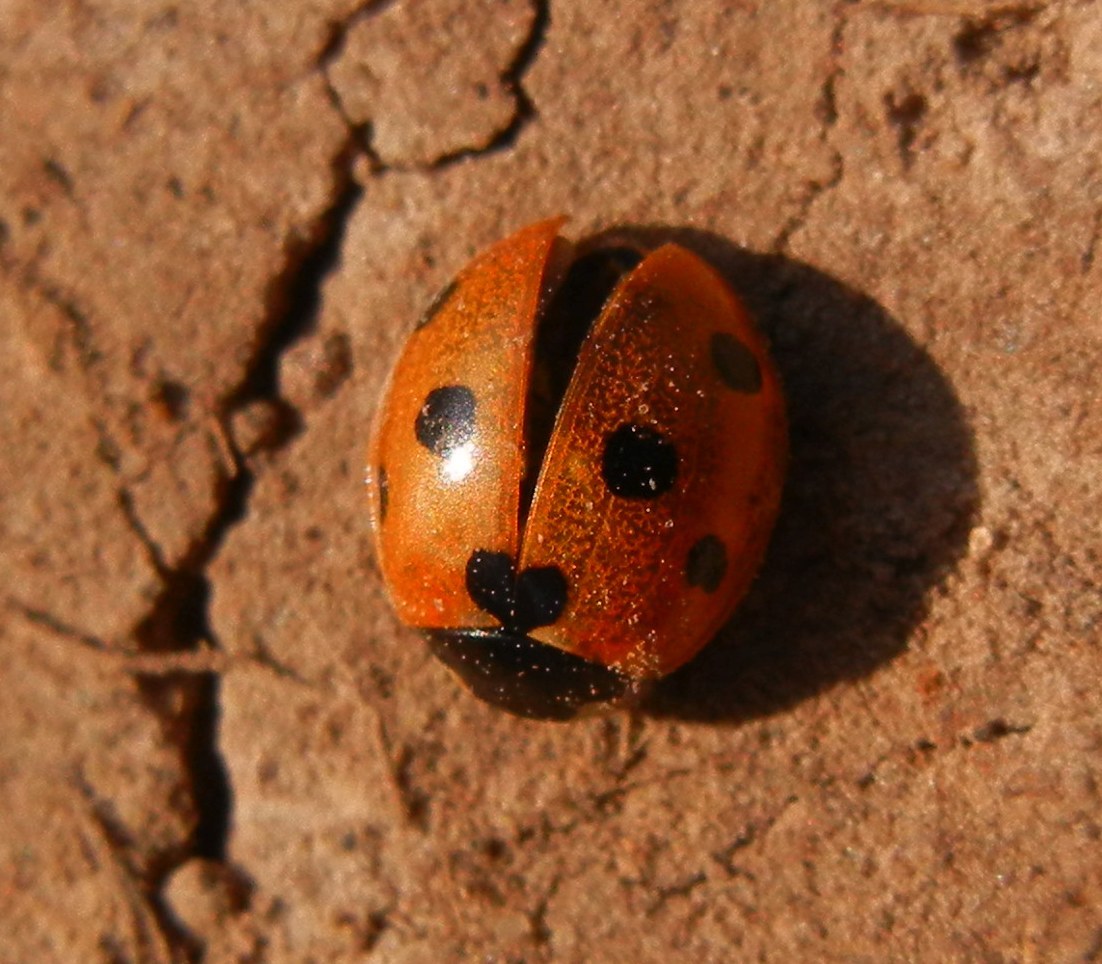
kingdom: Animalia
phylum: Arthropoda
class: Insecta
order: Coleoptera
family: Coccinellidae
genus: Coccinella
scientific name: Coccinella septempunctata
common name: Sevenspotted lady beetle
